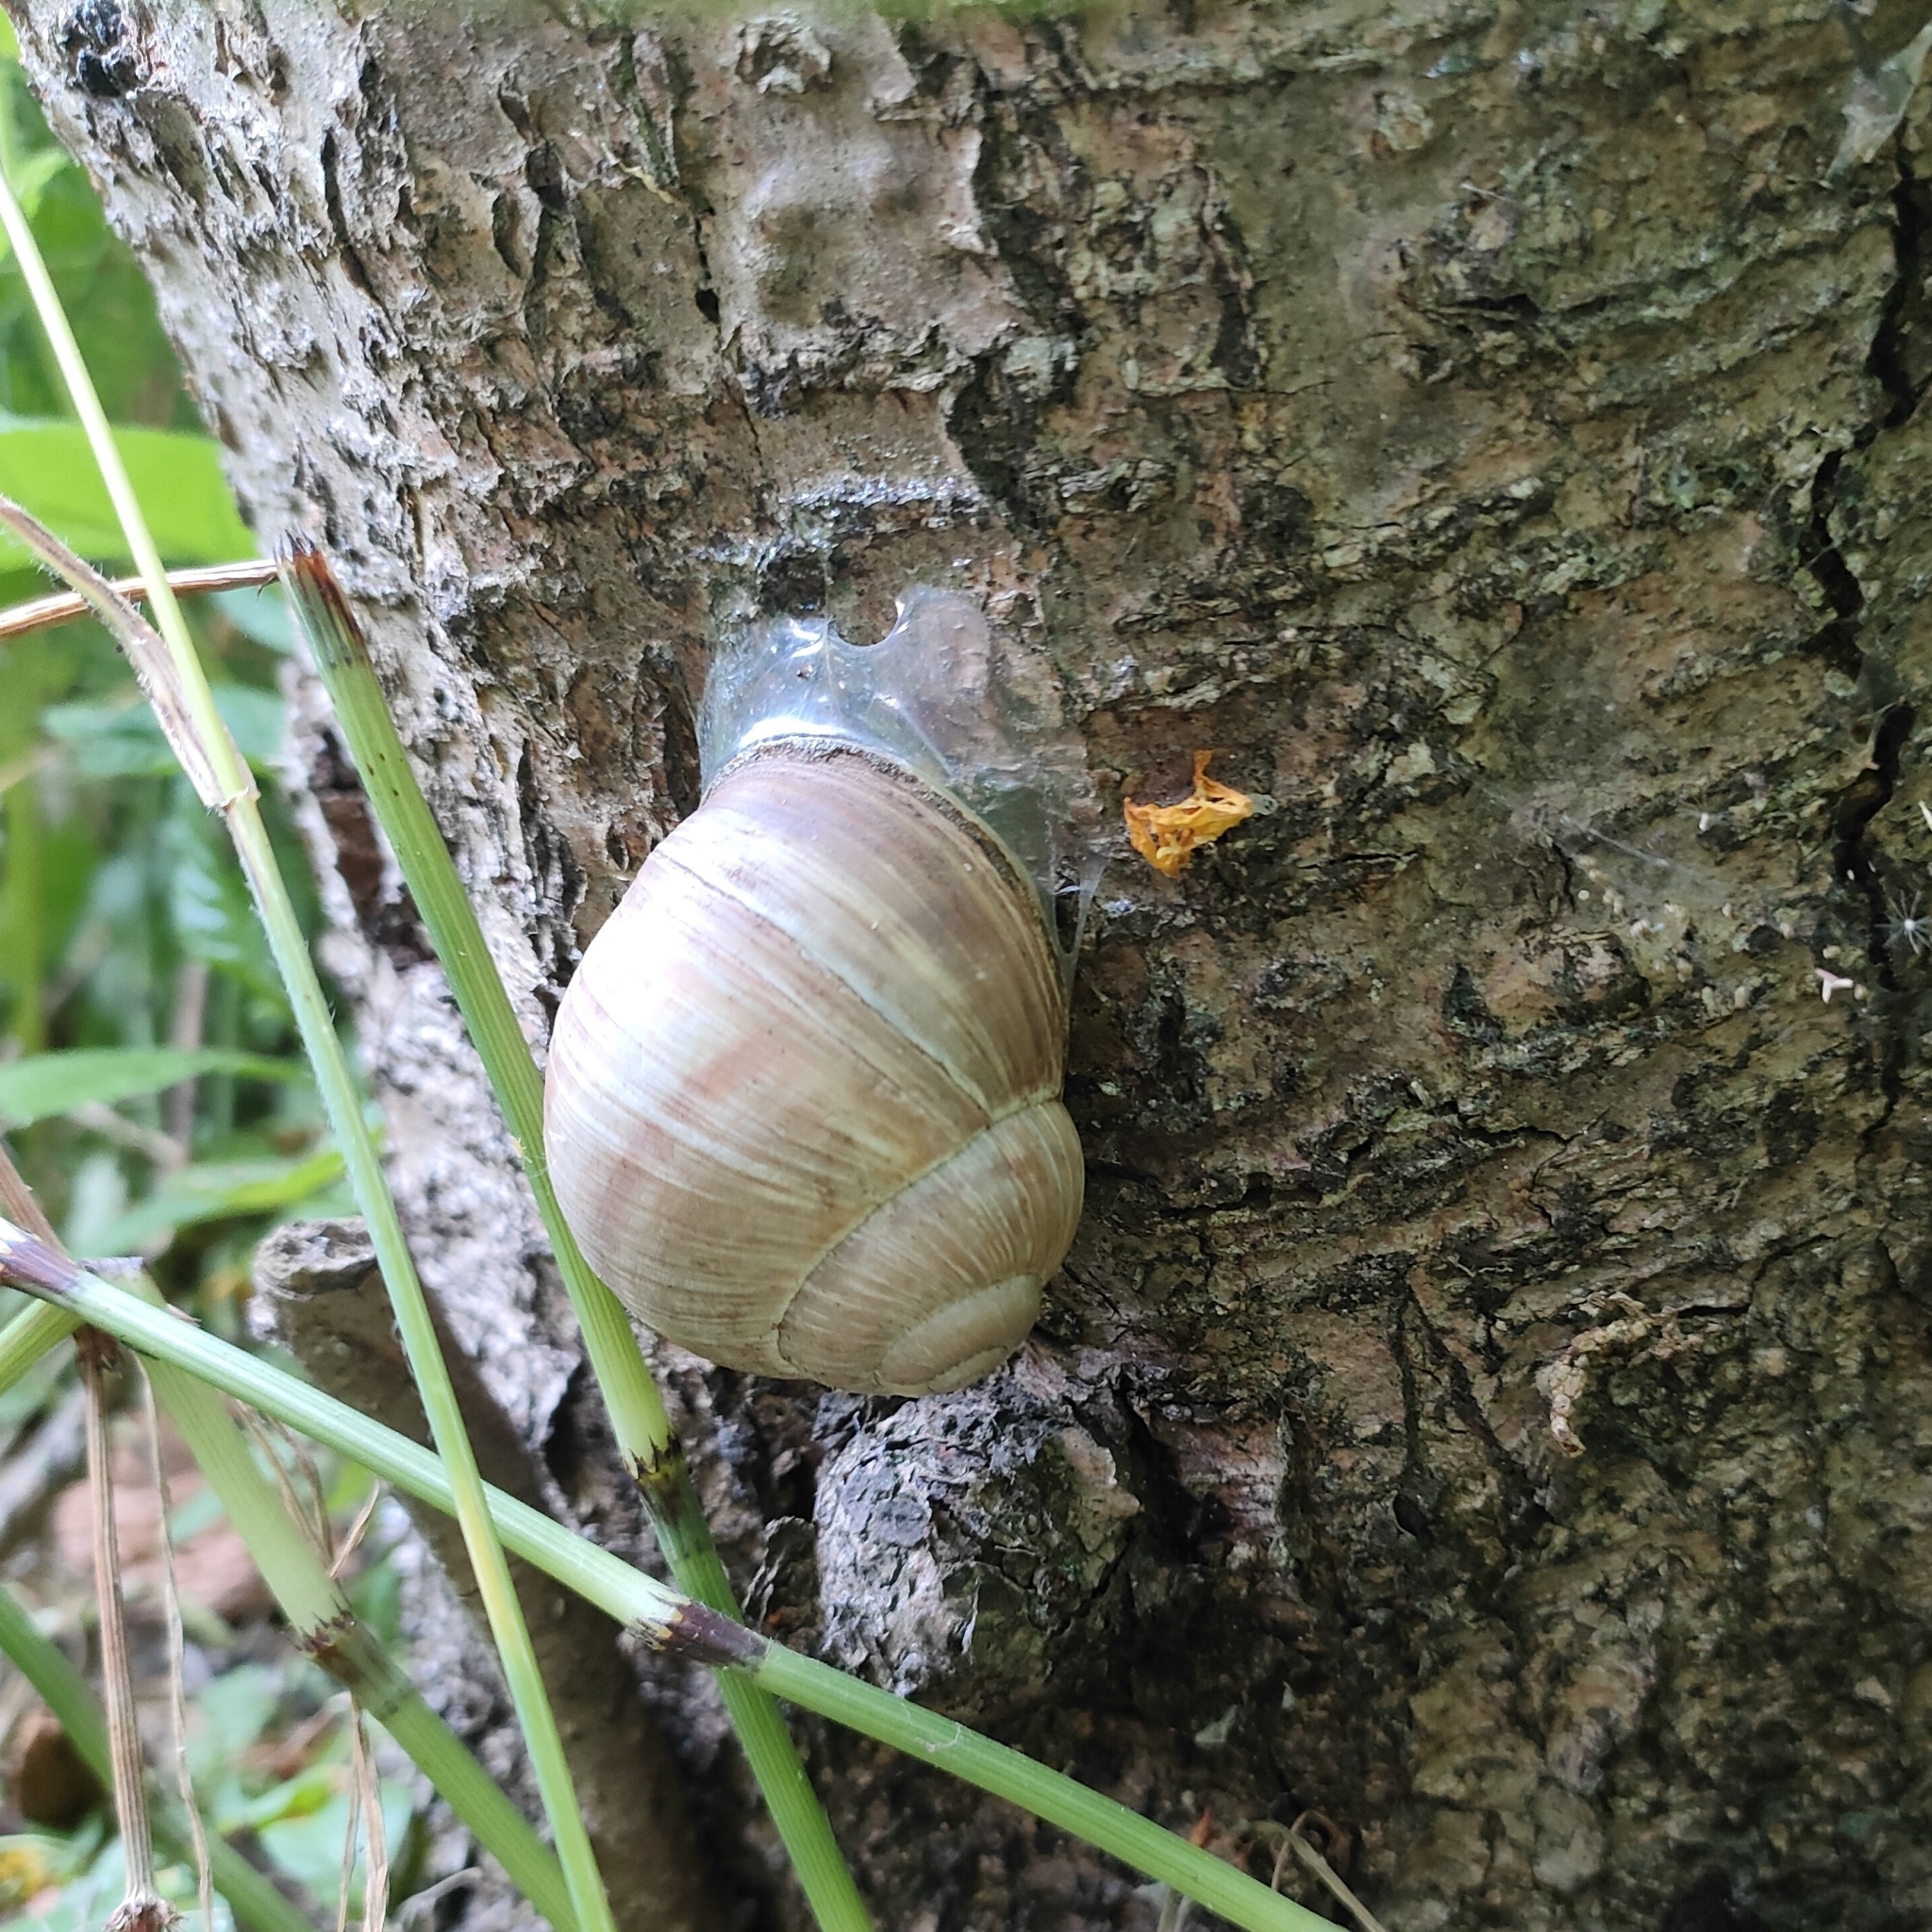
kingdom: Animalia
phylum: Mollusca
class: Gastropoda
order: Stylommatophora
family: Helicidae
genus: Helix
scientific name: Helix pomatia
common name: Roman snail
